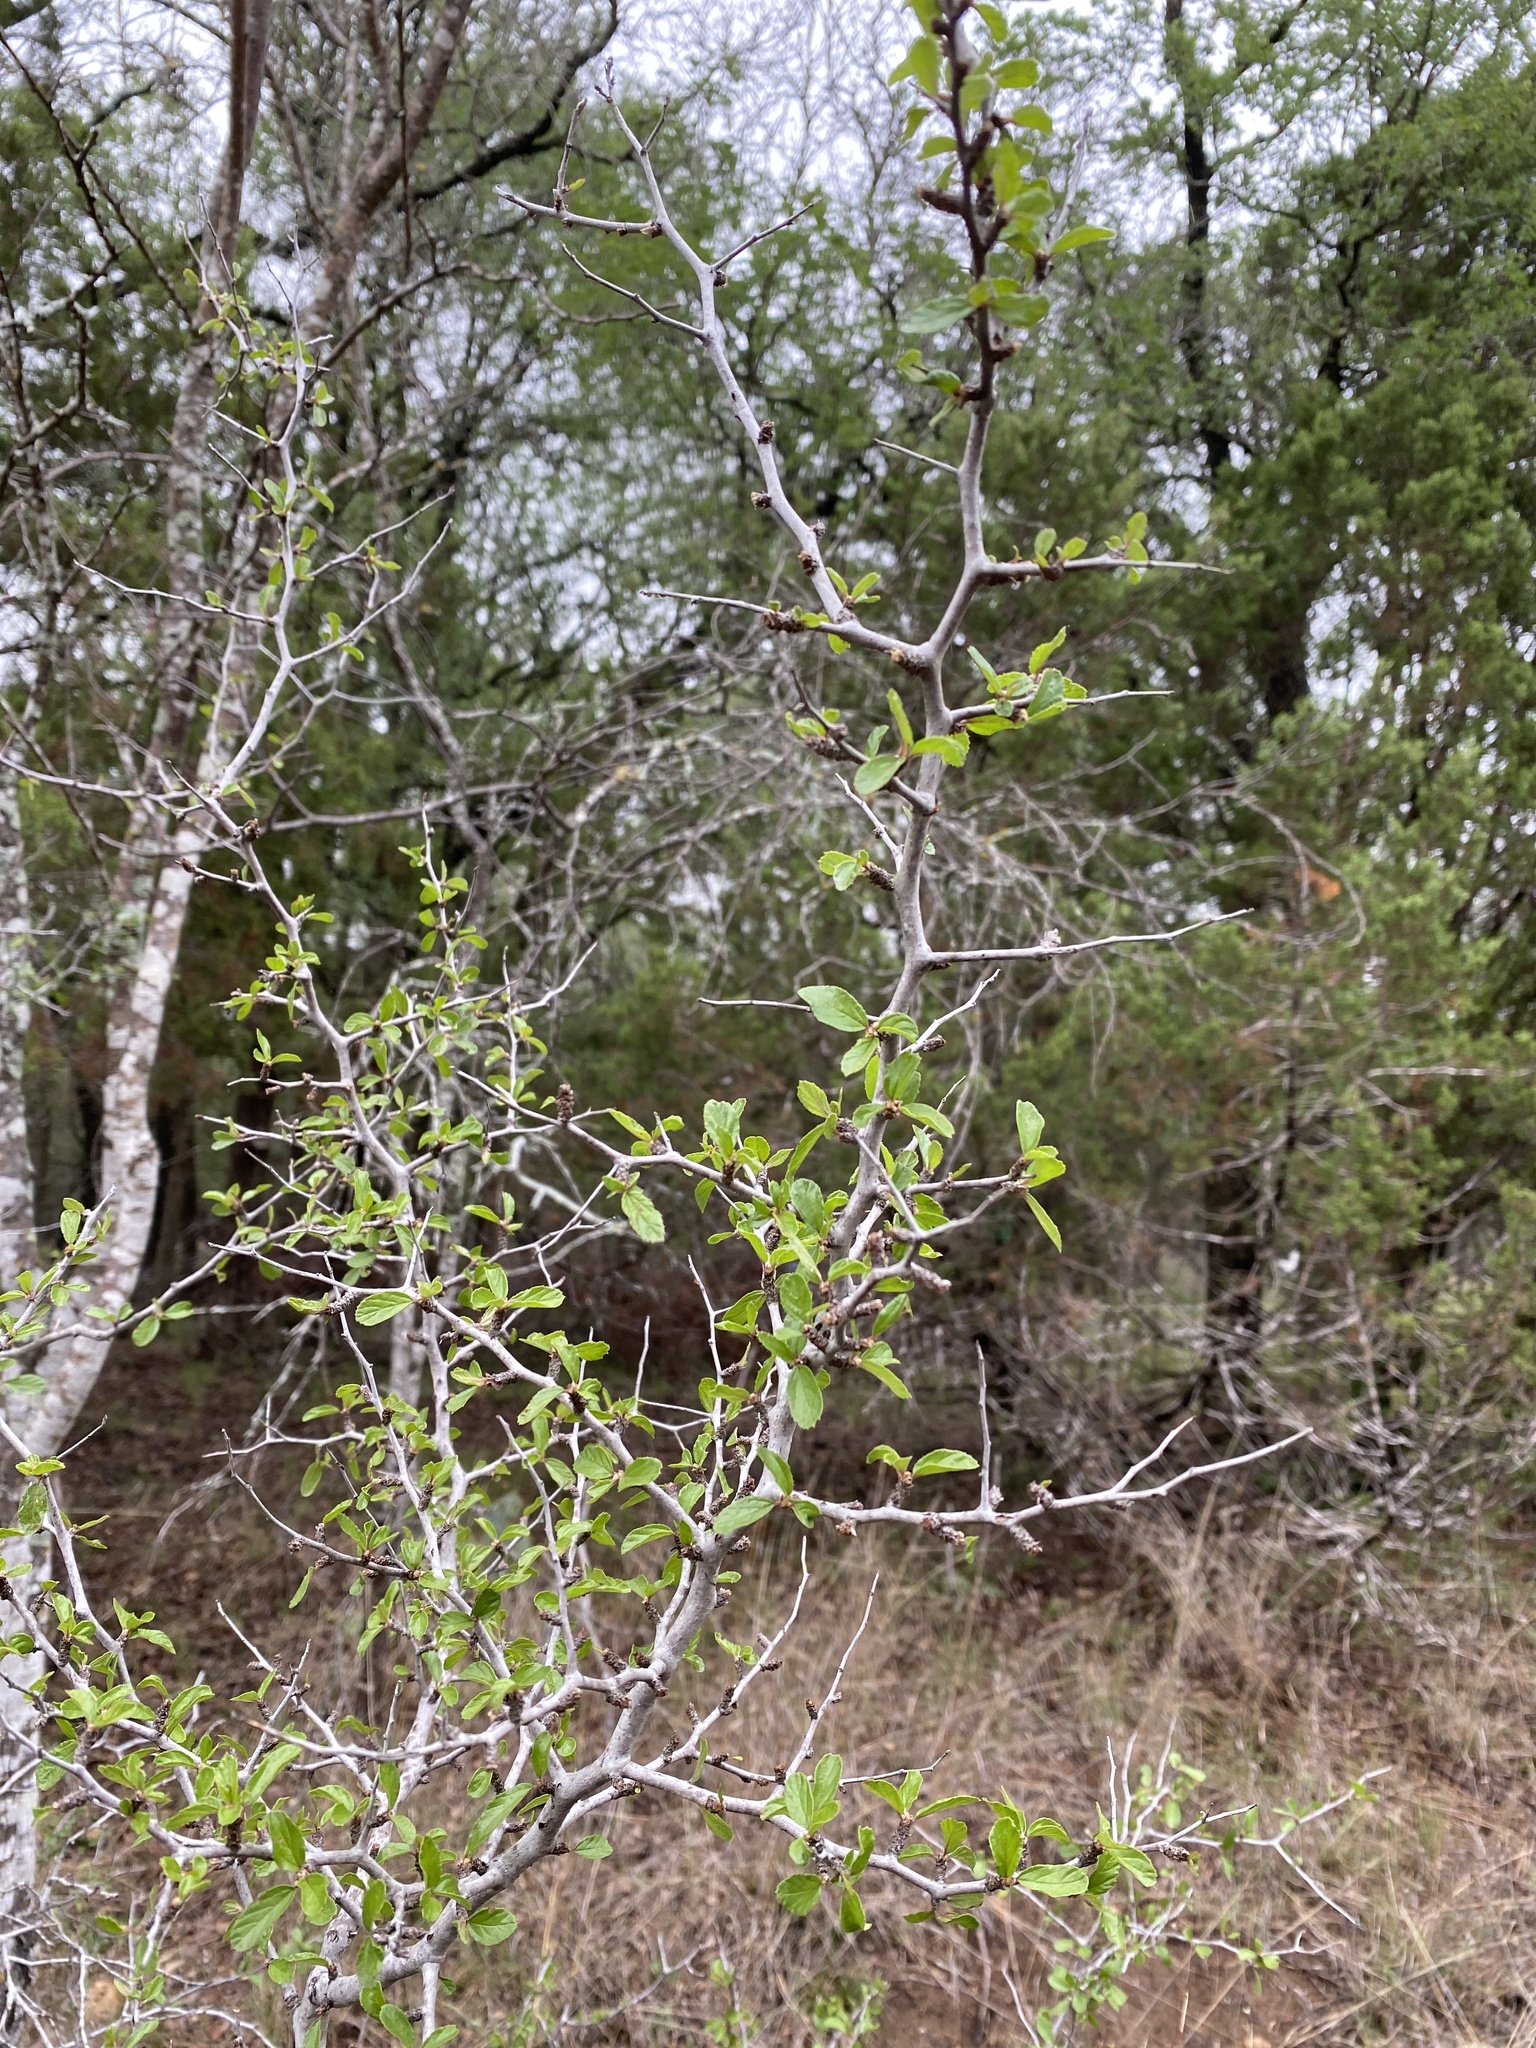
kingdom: Plantae
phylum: Tracheophyta
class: Magnoliopsida
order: Rosales
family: Rhamnaceae
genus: Colubrina
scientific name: Colubrina texensis
